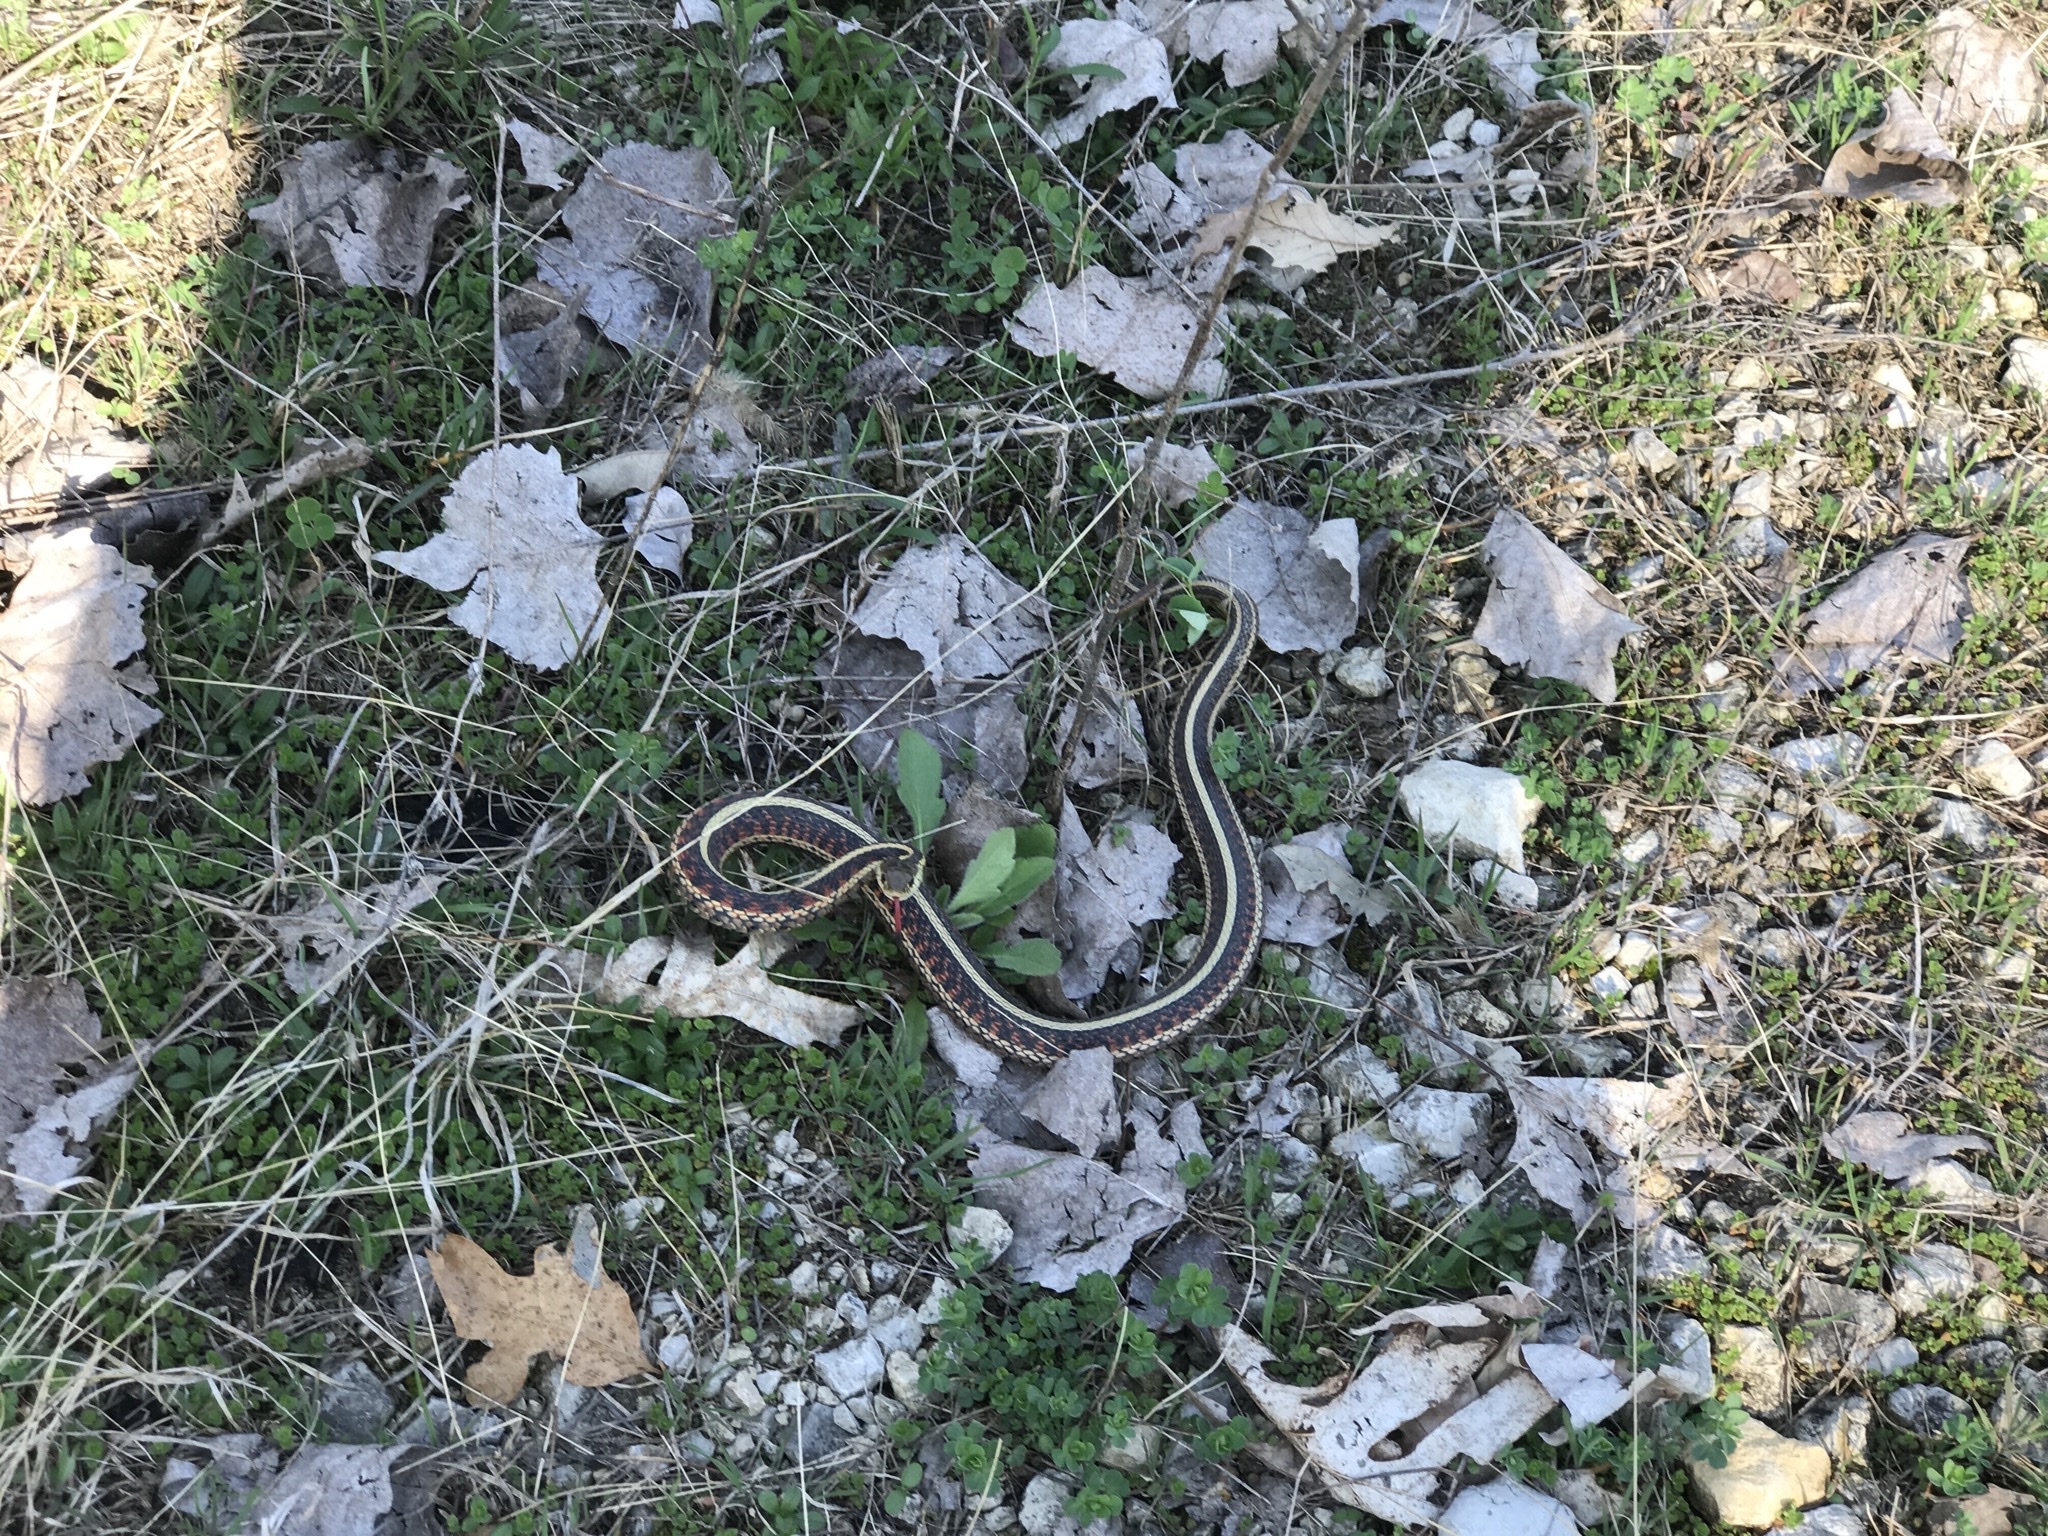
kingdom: Animalia
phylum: Chordata
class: Squamata
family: Colubridae
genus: Thamnophis
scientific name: Thamnophis sirtalis
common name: Common garter snake
